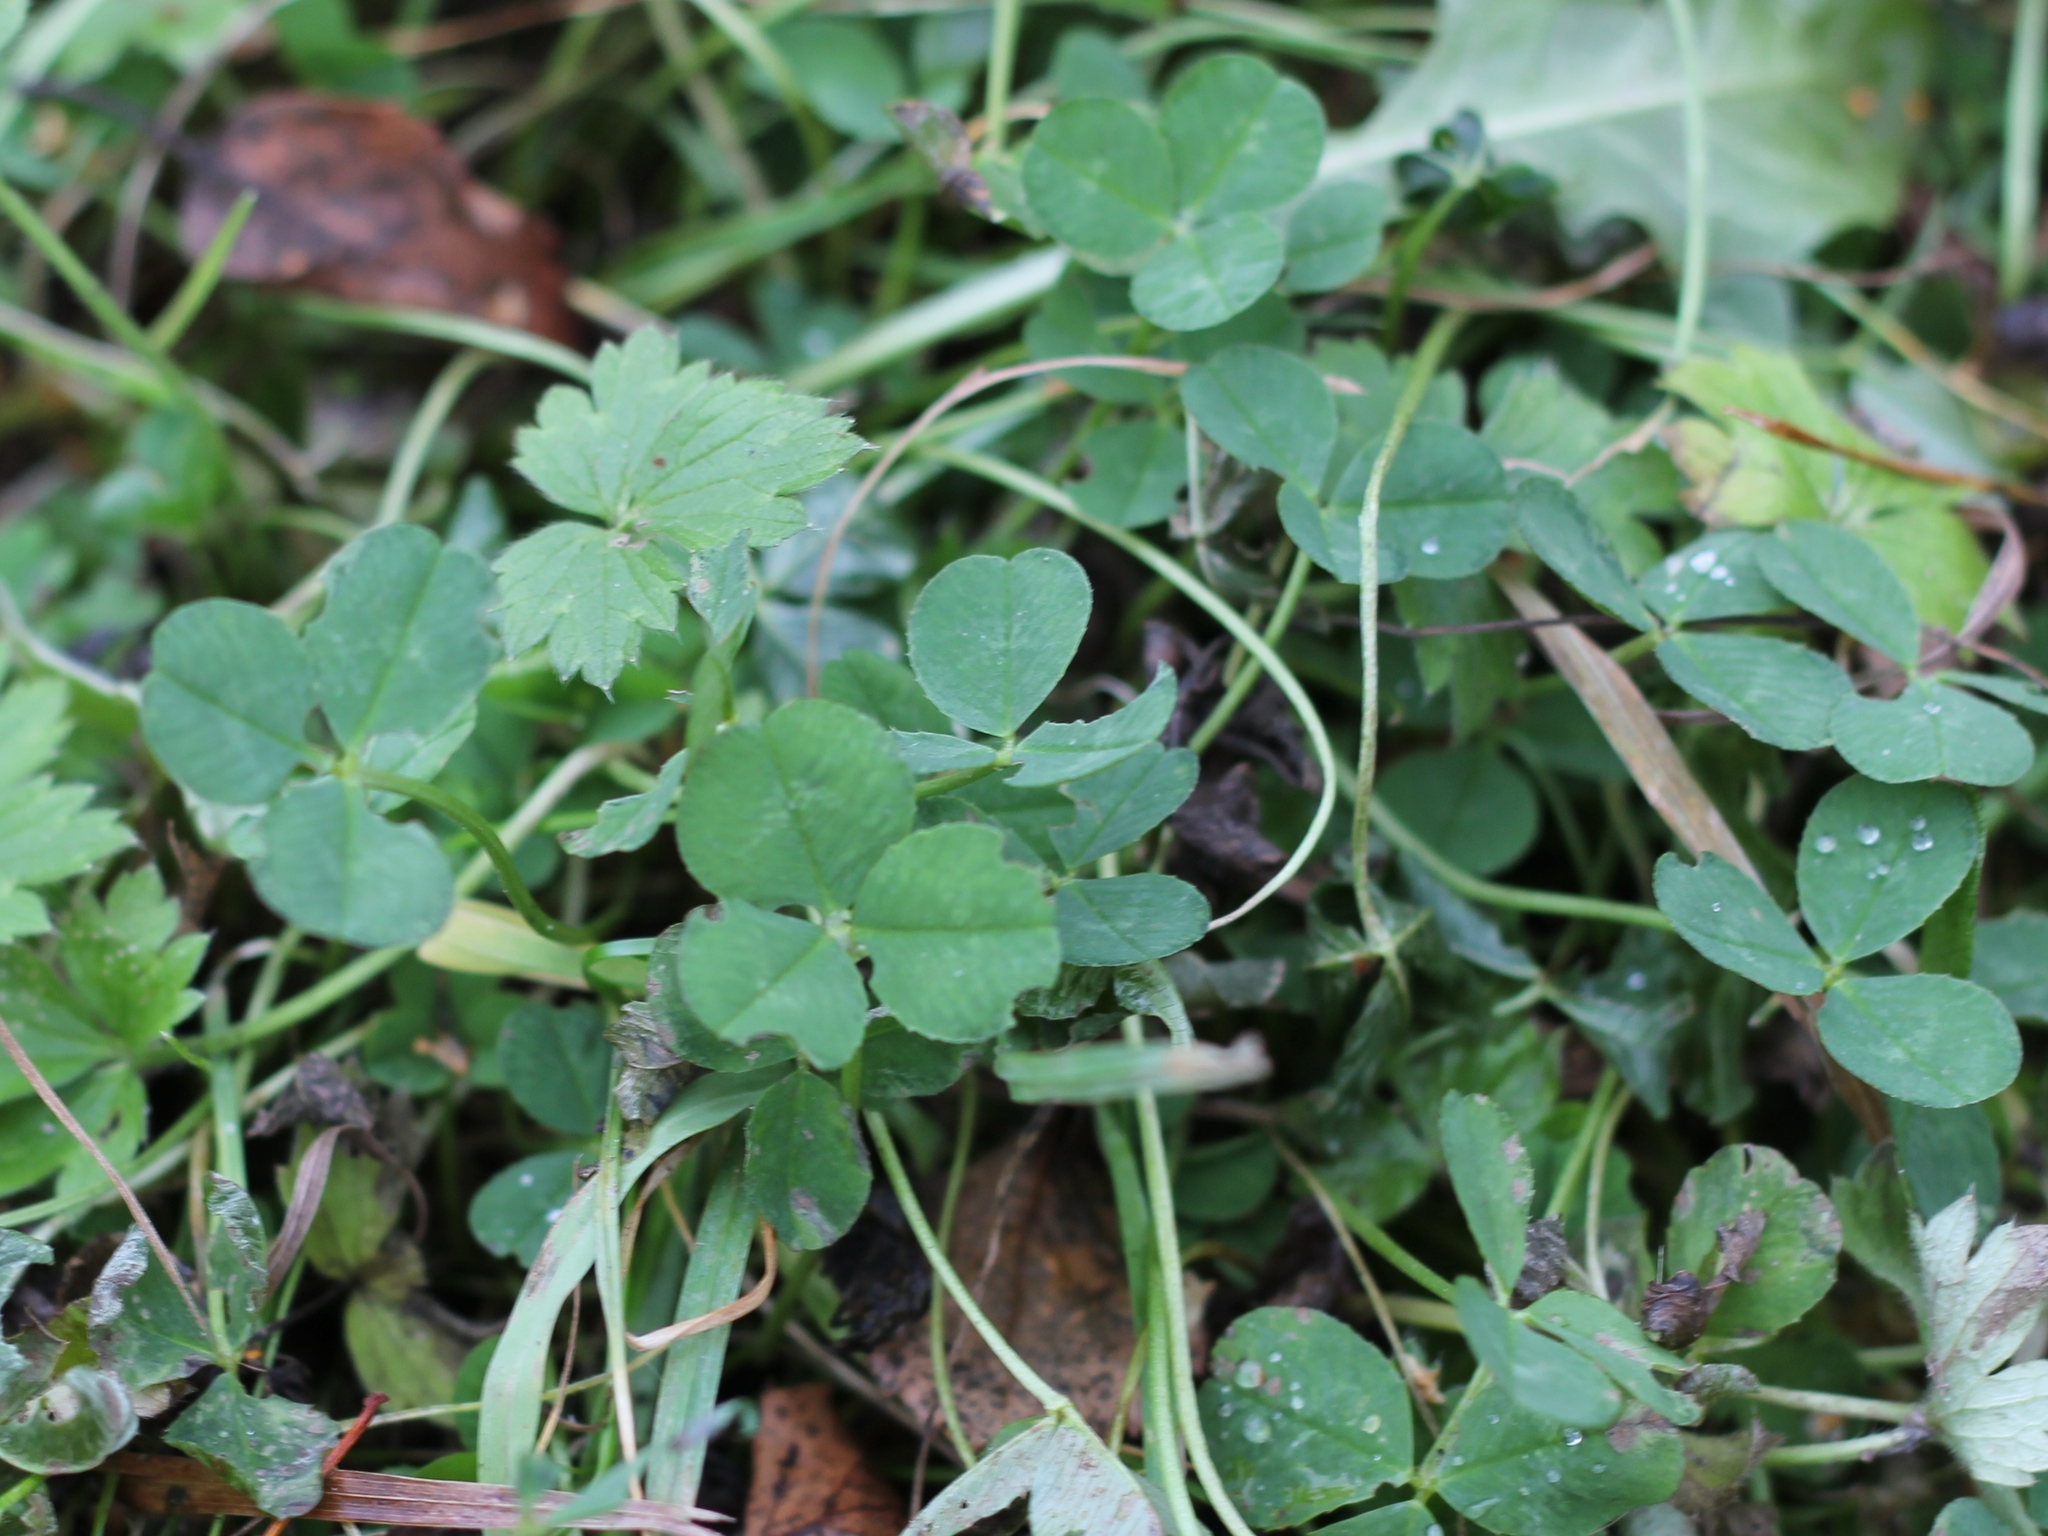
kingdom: Plantae
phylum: Tracheophyta
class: Magnoliopsida
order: Fabales
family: Fabaceae
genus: Trifolium
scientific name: Trifolium repens
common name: White clover
